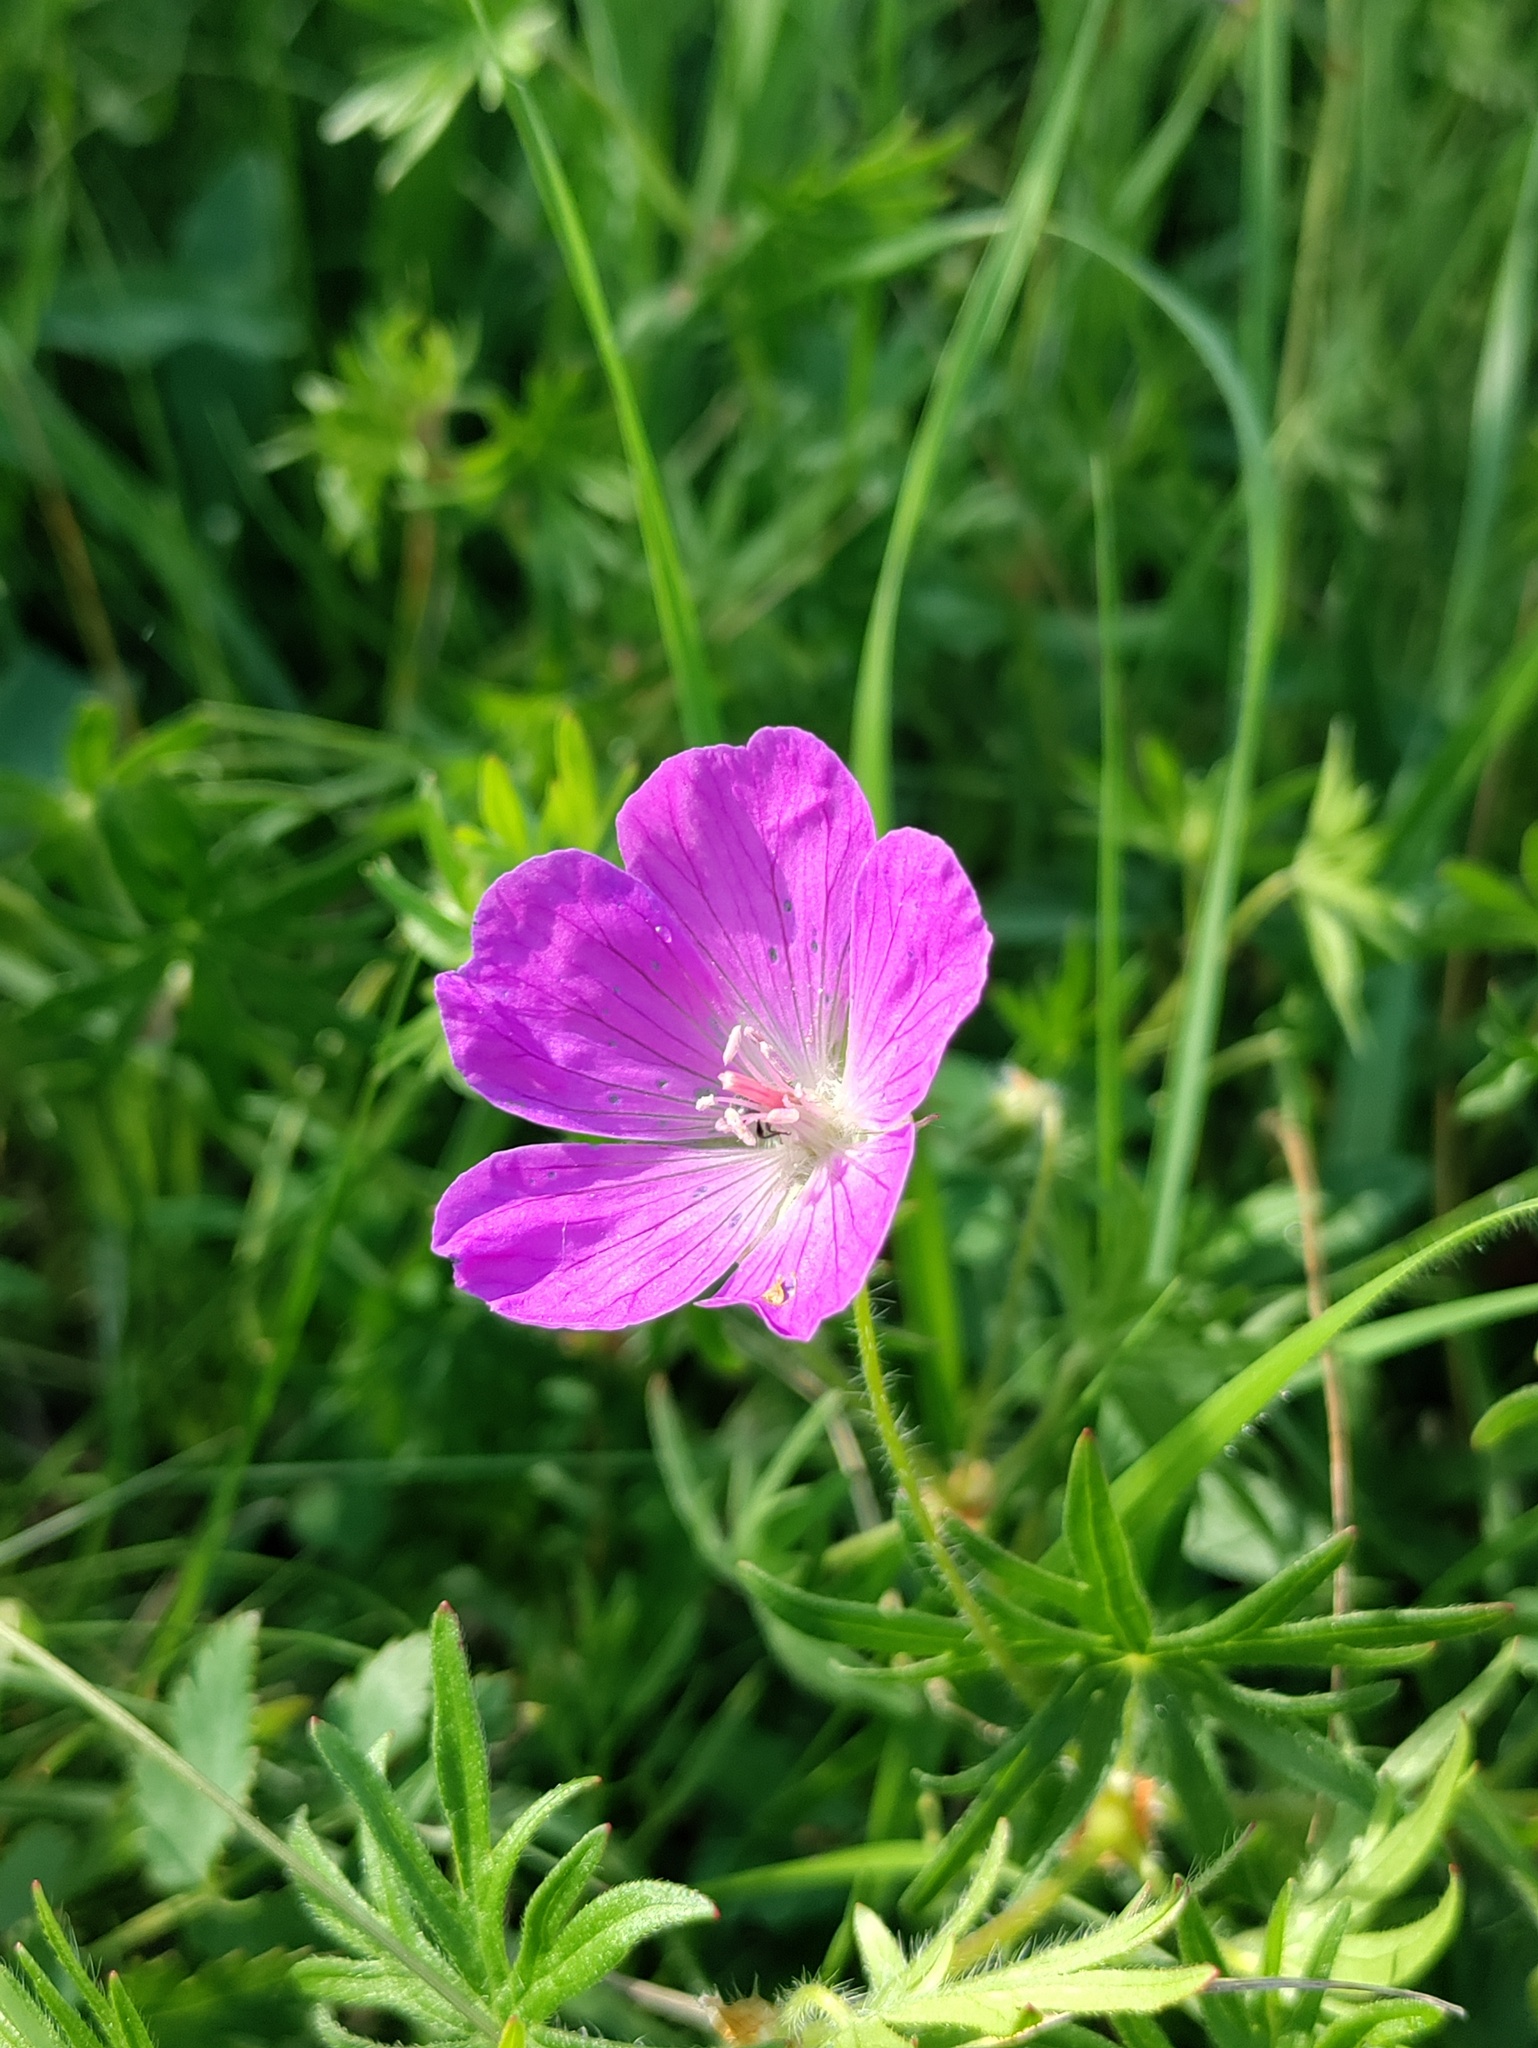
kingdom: Plantae
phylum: Tracheophyta
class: Magnoliopsida
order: Geraniales
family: Geraniaceae
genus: Geranium
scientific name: Geranium sanguineum
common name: Bloody crane's-bill
